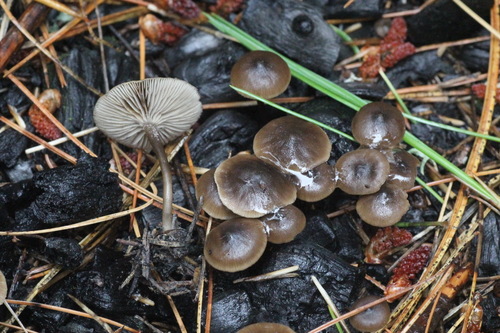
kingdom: Fungi
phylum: Basidiomycota
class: Agaricomycetes
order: Agaricales
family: Tricholomataceae
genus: Myxomphalia
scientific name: Myxomphalia maura
